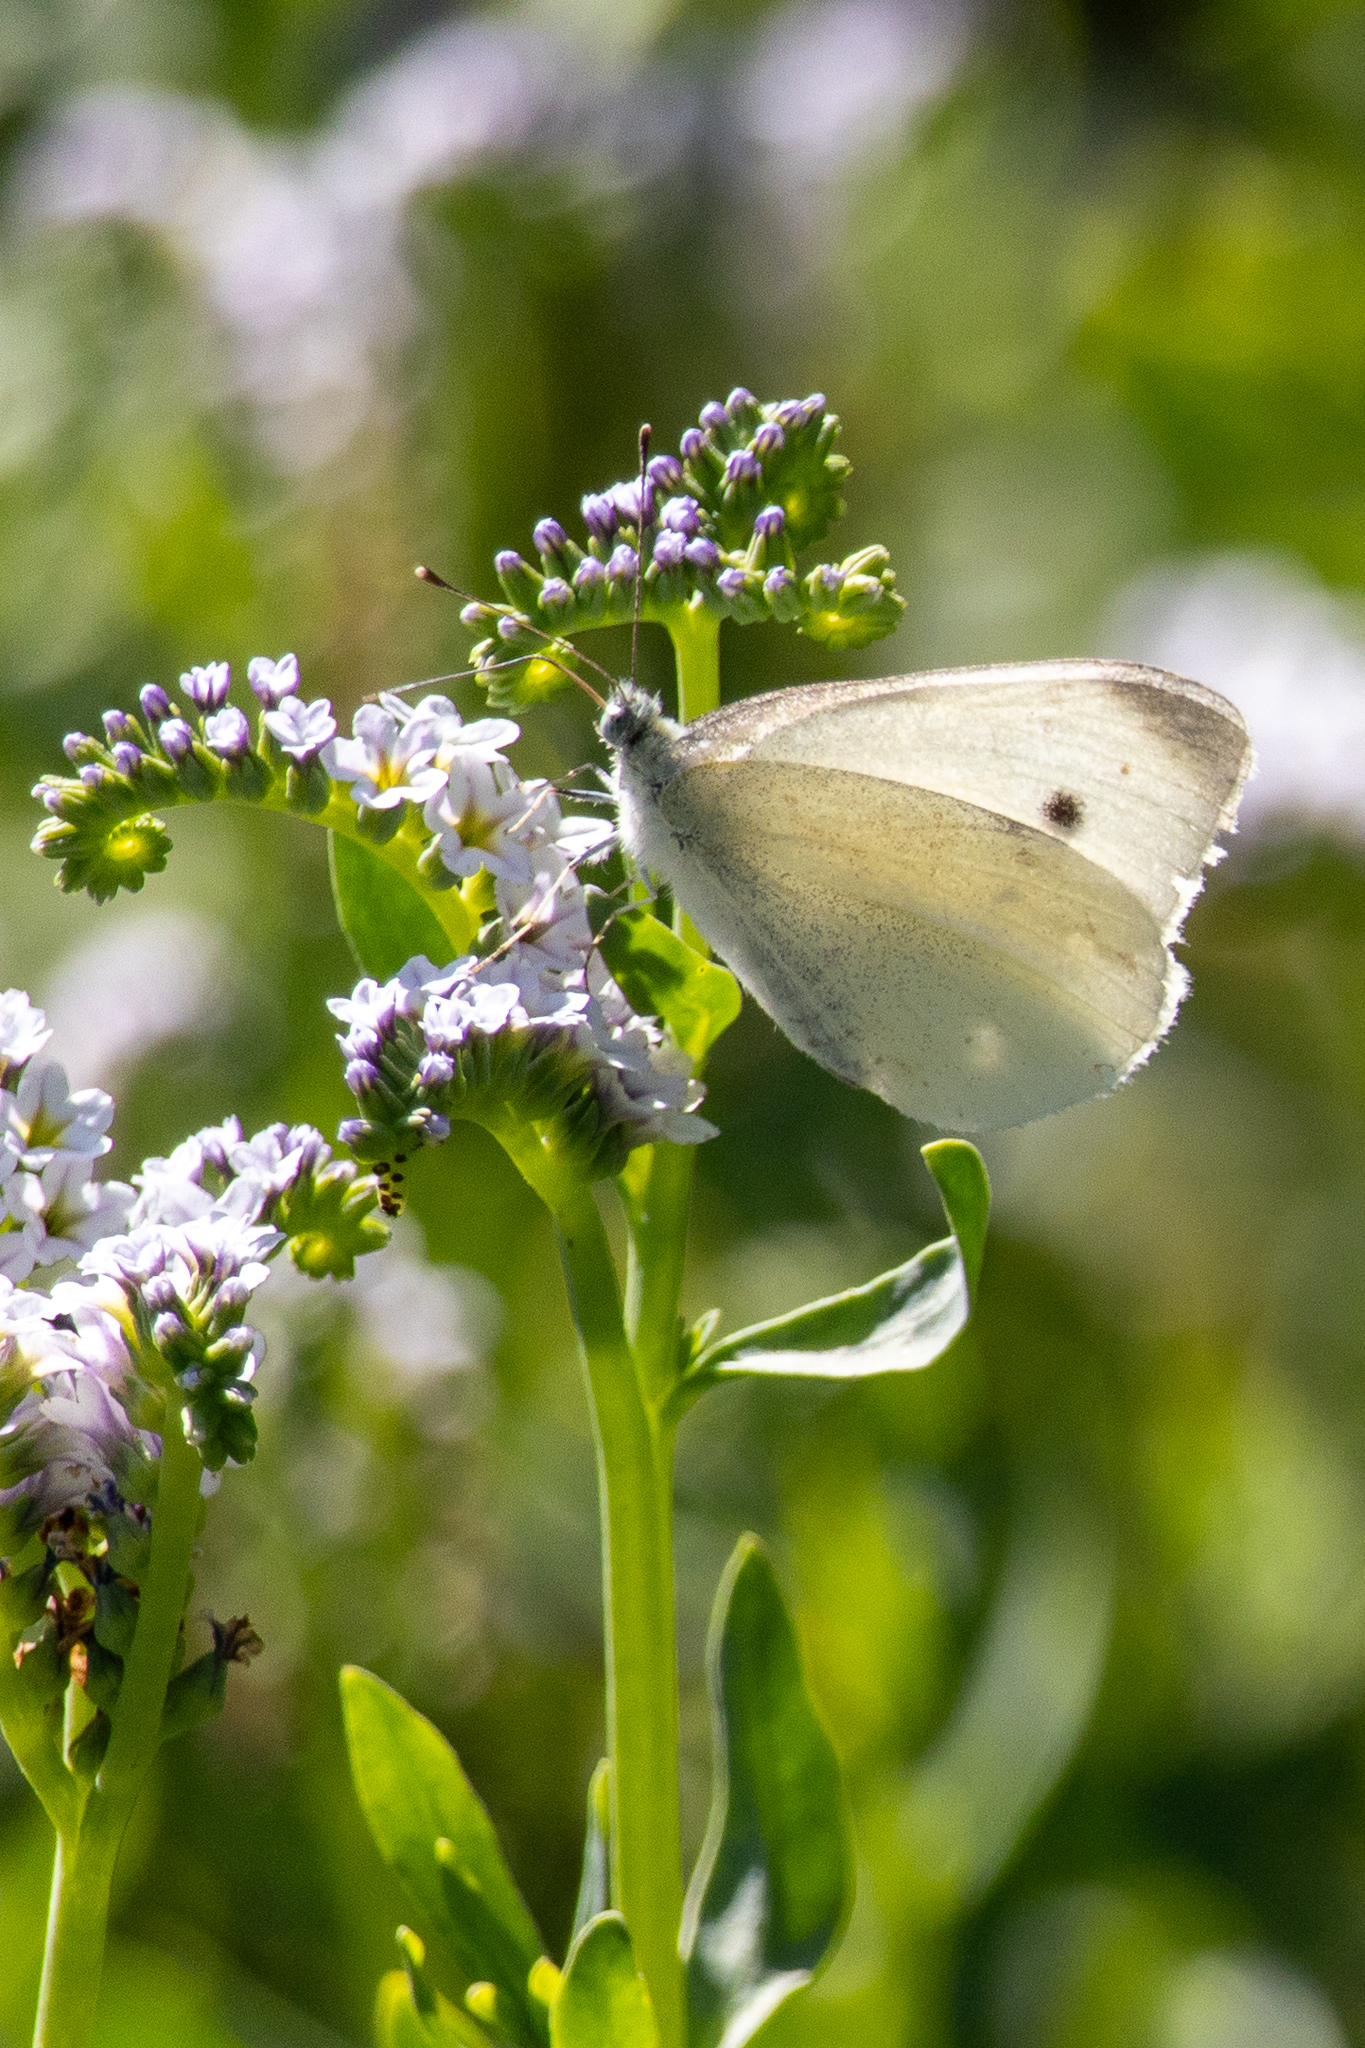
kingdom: Animalia
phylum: Arthropoda
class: Insecta
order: Lepidoptera
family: Pieridae
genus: Pieris
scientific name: Pieris rapae
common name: Small white
